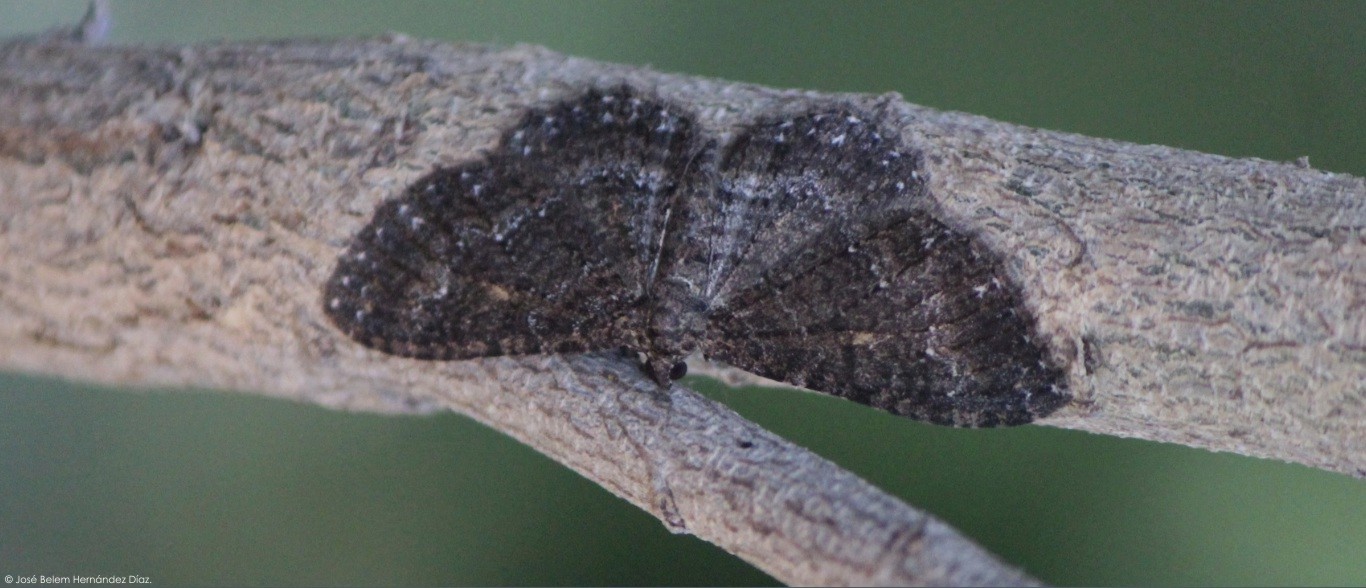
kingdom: Animalia
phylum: Arthropoda
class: Insecta
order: Lepidoptera
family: Geometridae
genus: Disclisioprocta
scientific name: Disclisioprocta stellata
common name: Somber carpet
